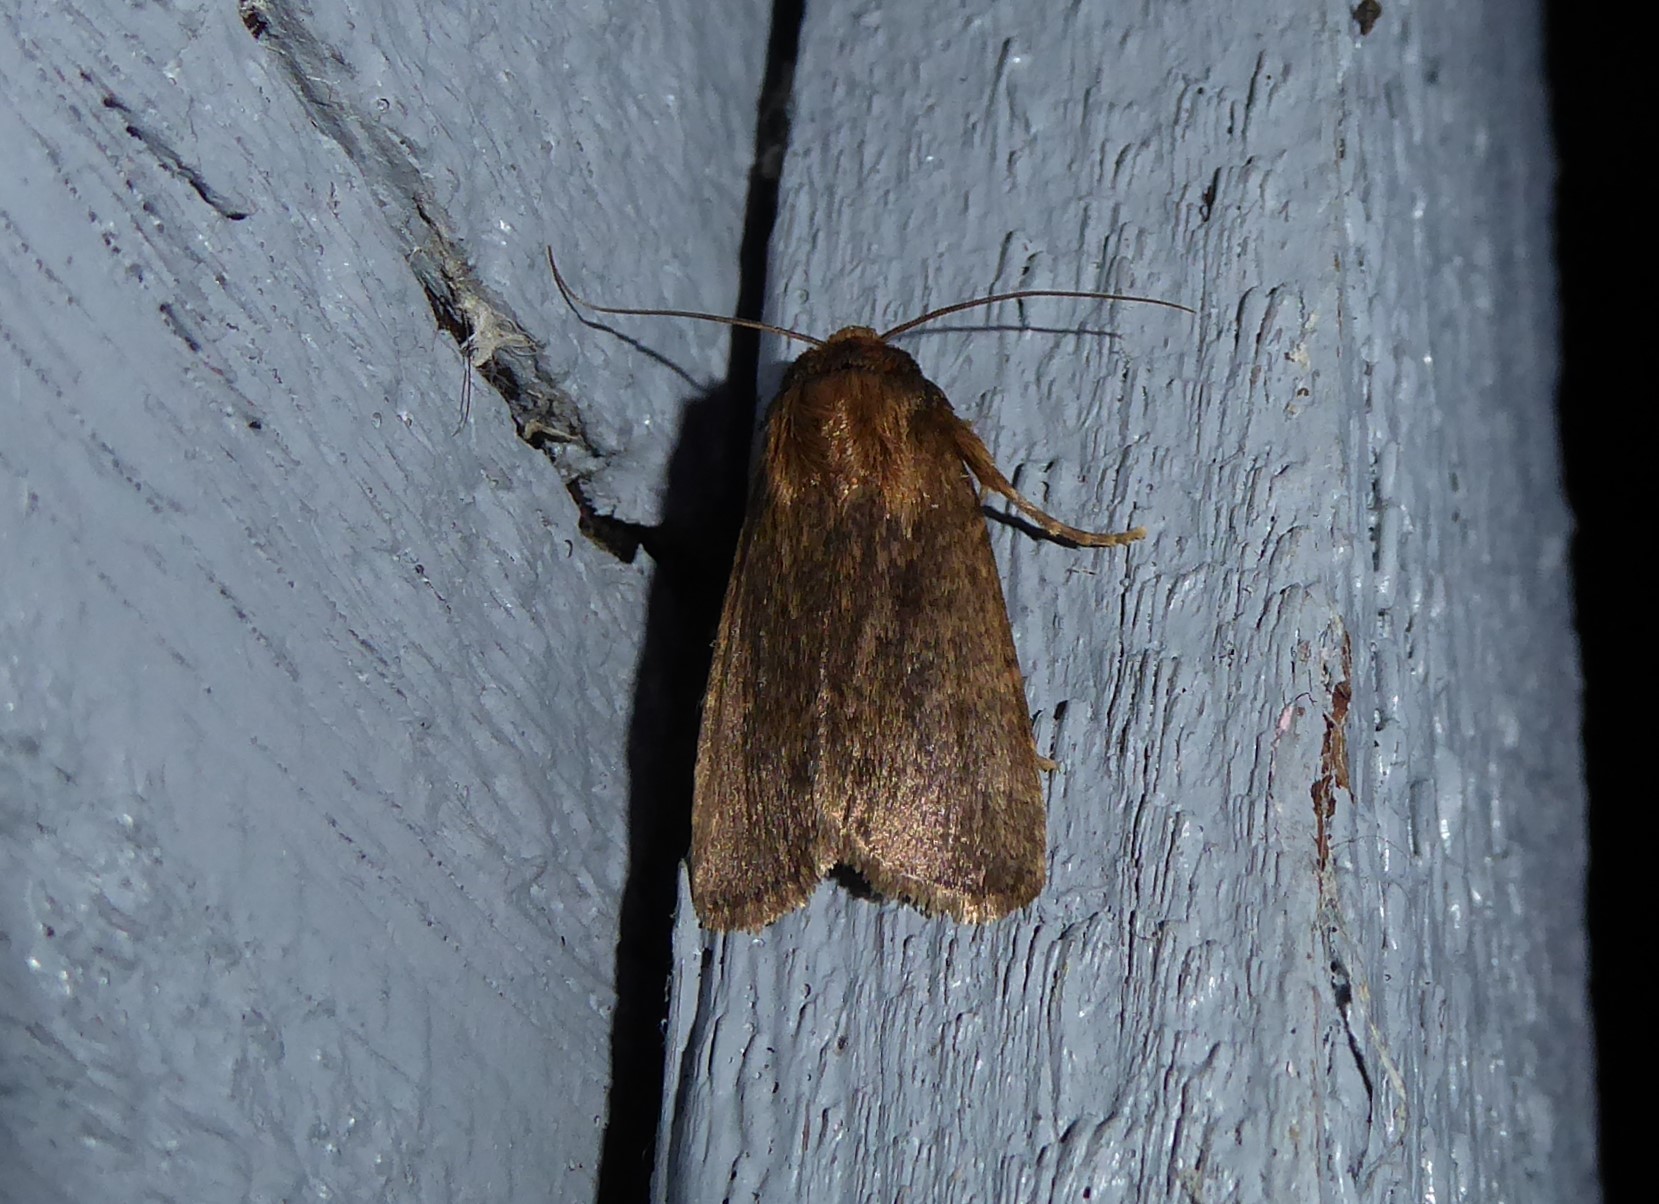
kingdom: Animalia
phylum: Arthropoda
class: Insecta
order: Lepidoptera
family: Noctuidae
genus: Bityla
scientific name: Bityla defigurata
